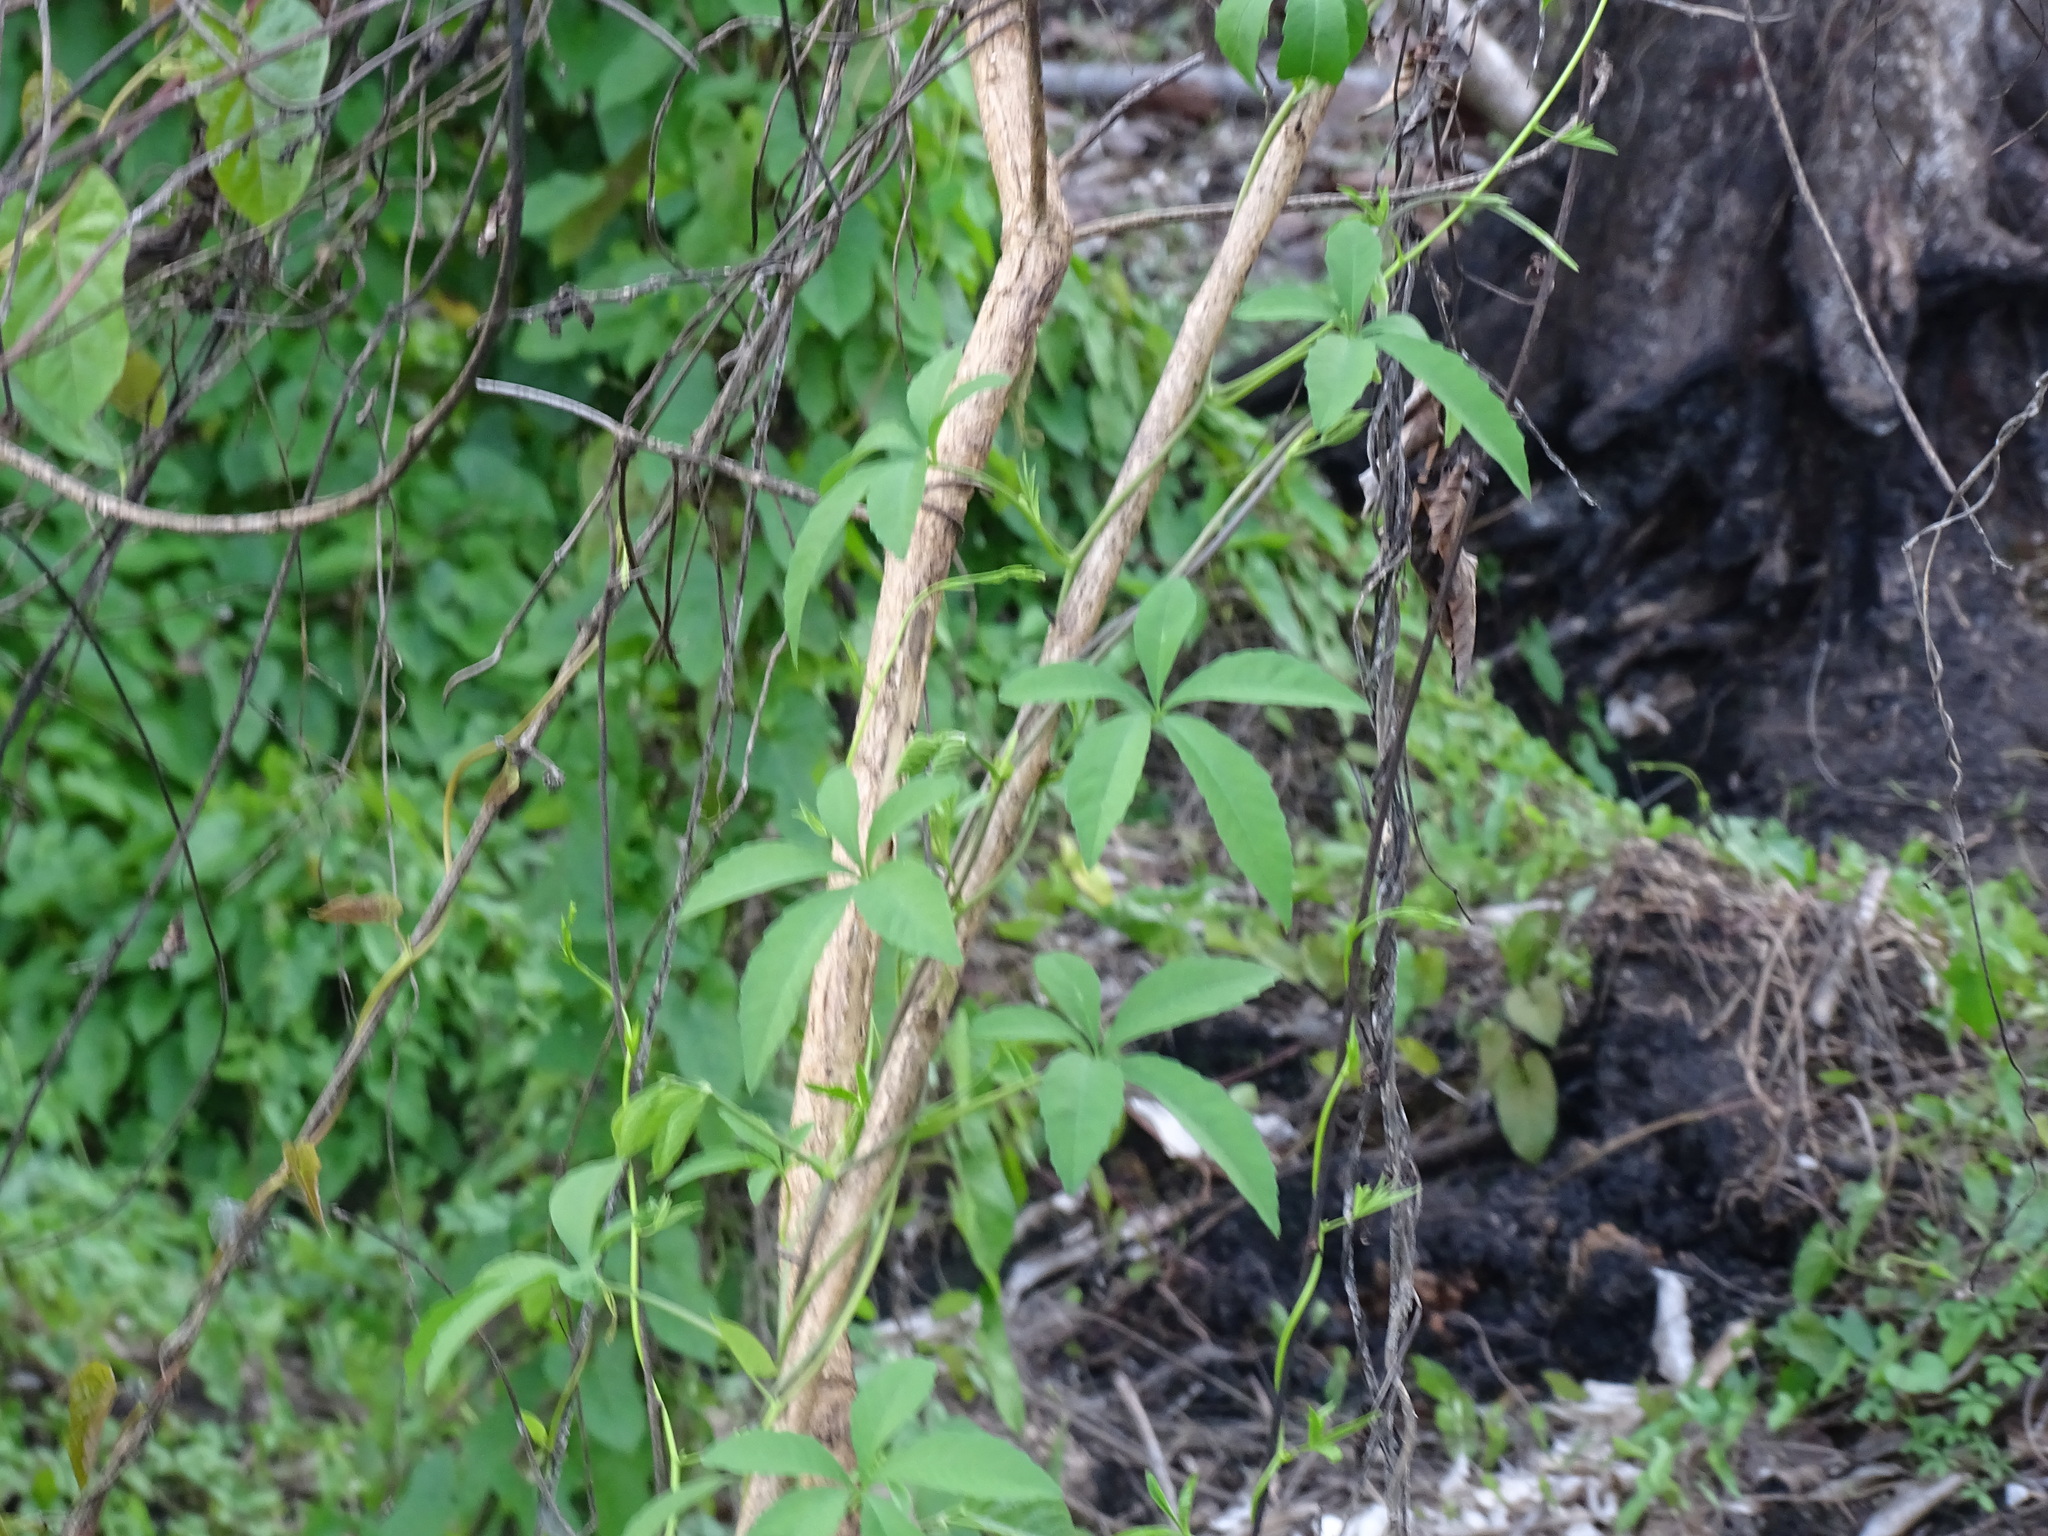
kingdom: Plantae
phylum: Tracheophyta
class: Magnoliopsida
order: Solanales
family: Convolvulaceae
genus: Distimake
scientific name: Distimake quinquefolius
